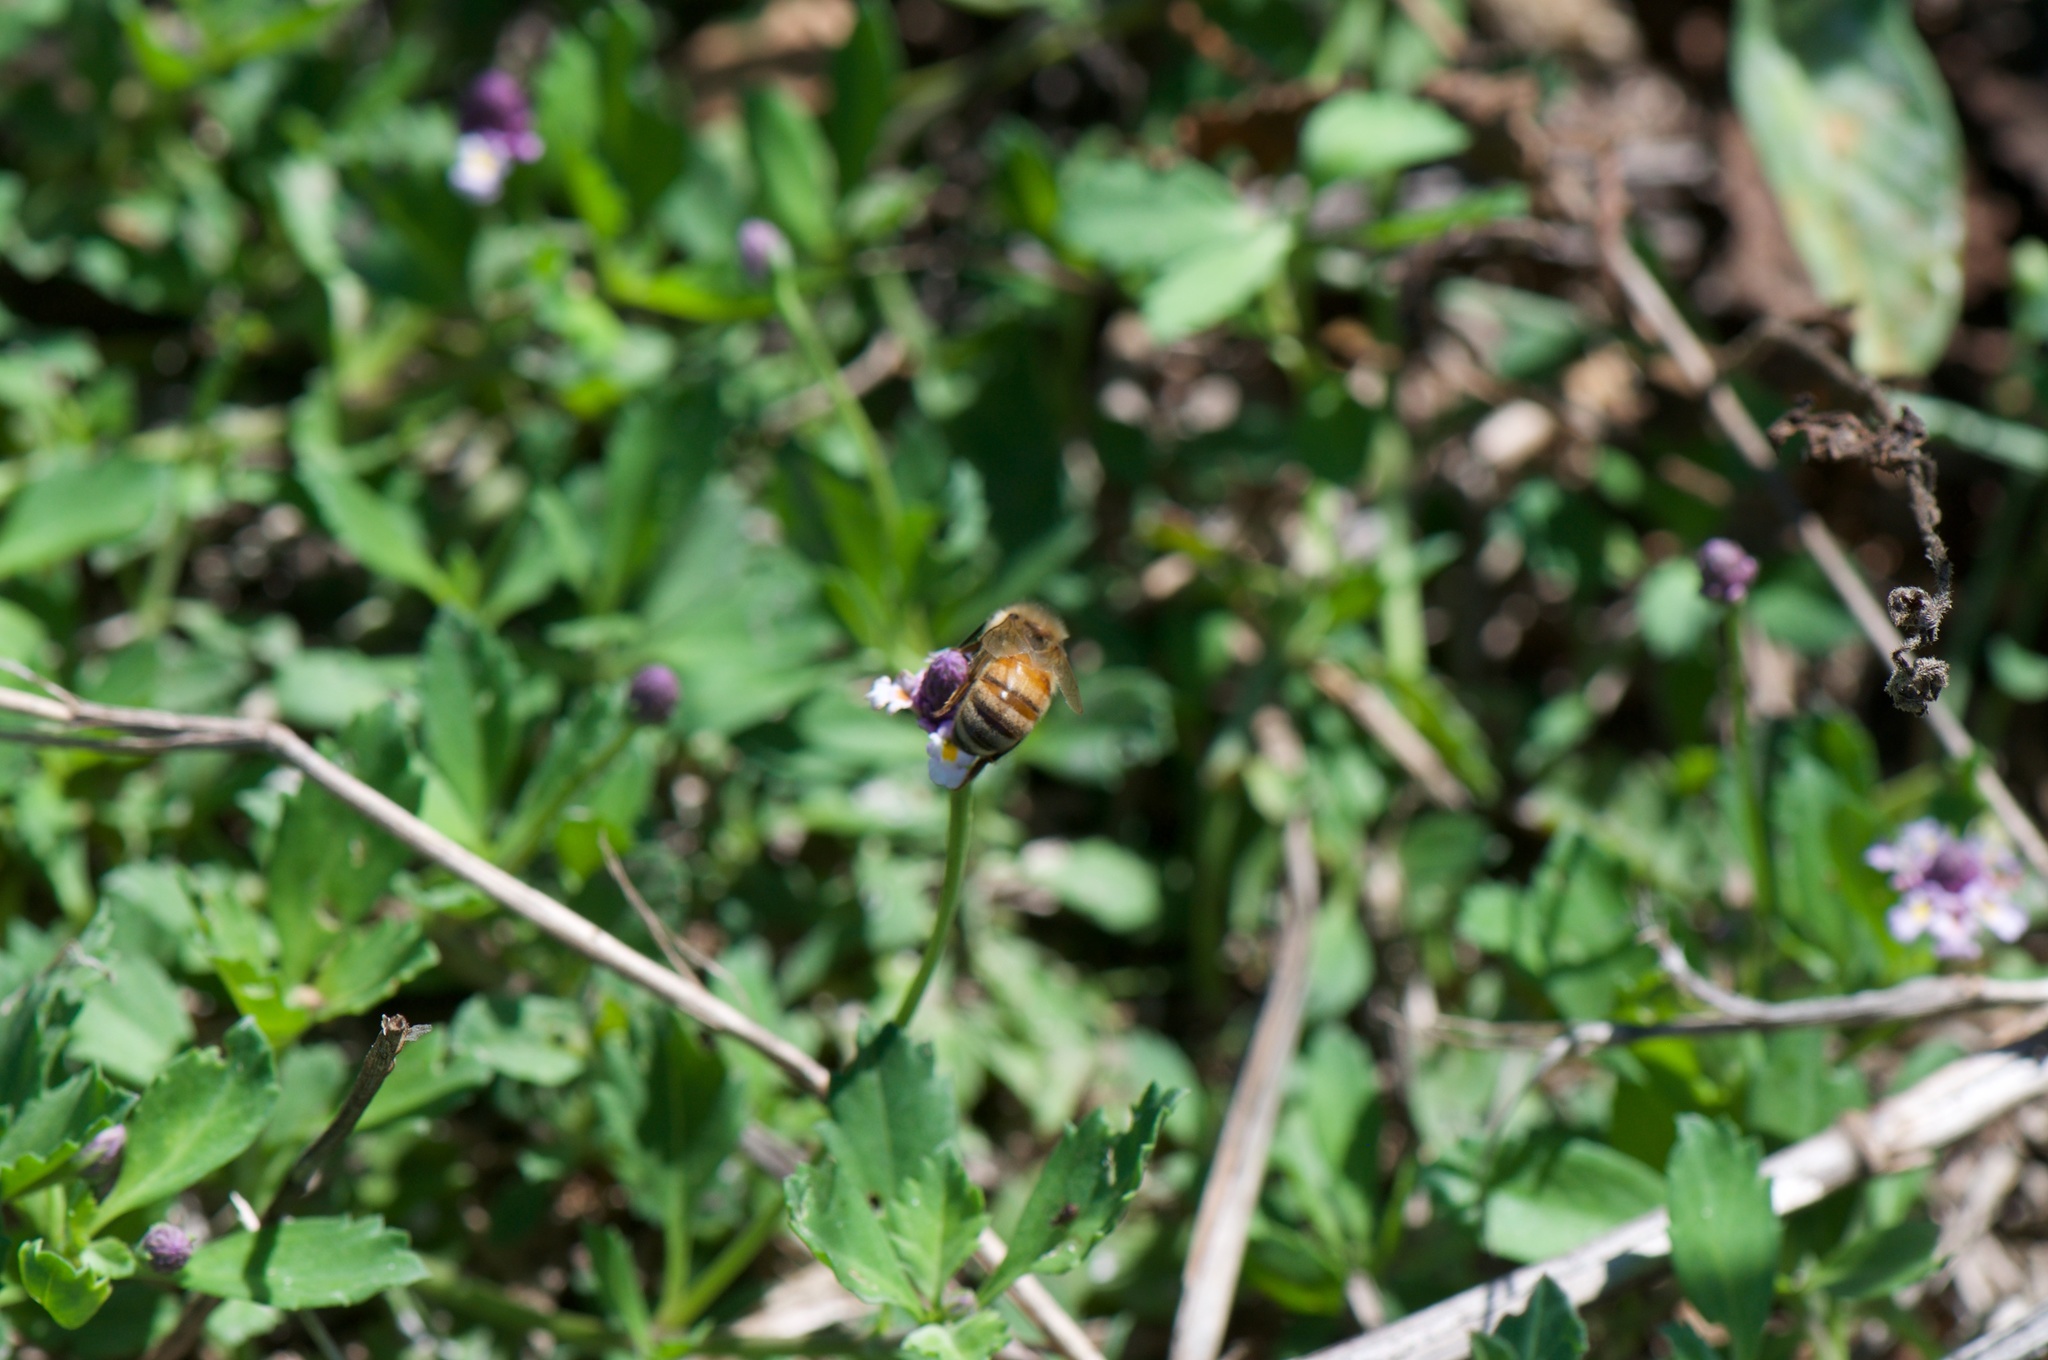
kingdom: Animalia
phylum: Arthropoda
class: Insecta
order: Hymenoptera
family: Apidae
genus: Apis
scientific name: Apis mellifera
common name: Honey bee
